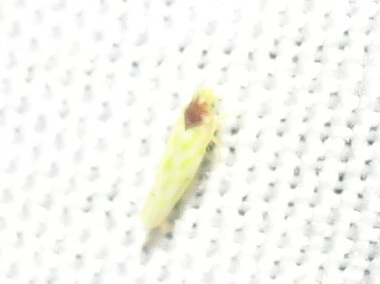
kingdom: Animalia
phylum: Arthropoda
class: Insecta
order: Hemiptera
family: Cicadellidae
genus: Eratoneura
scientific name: Eratoneura ardens
